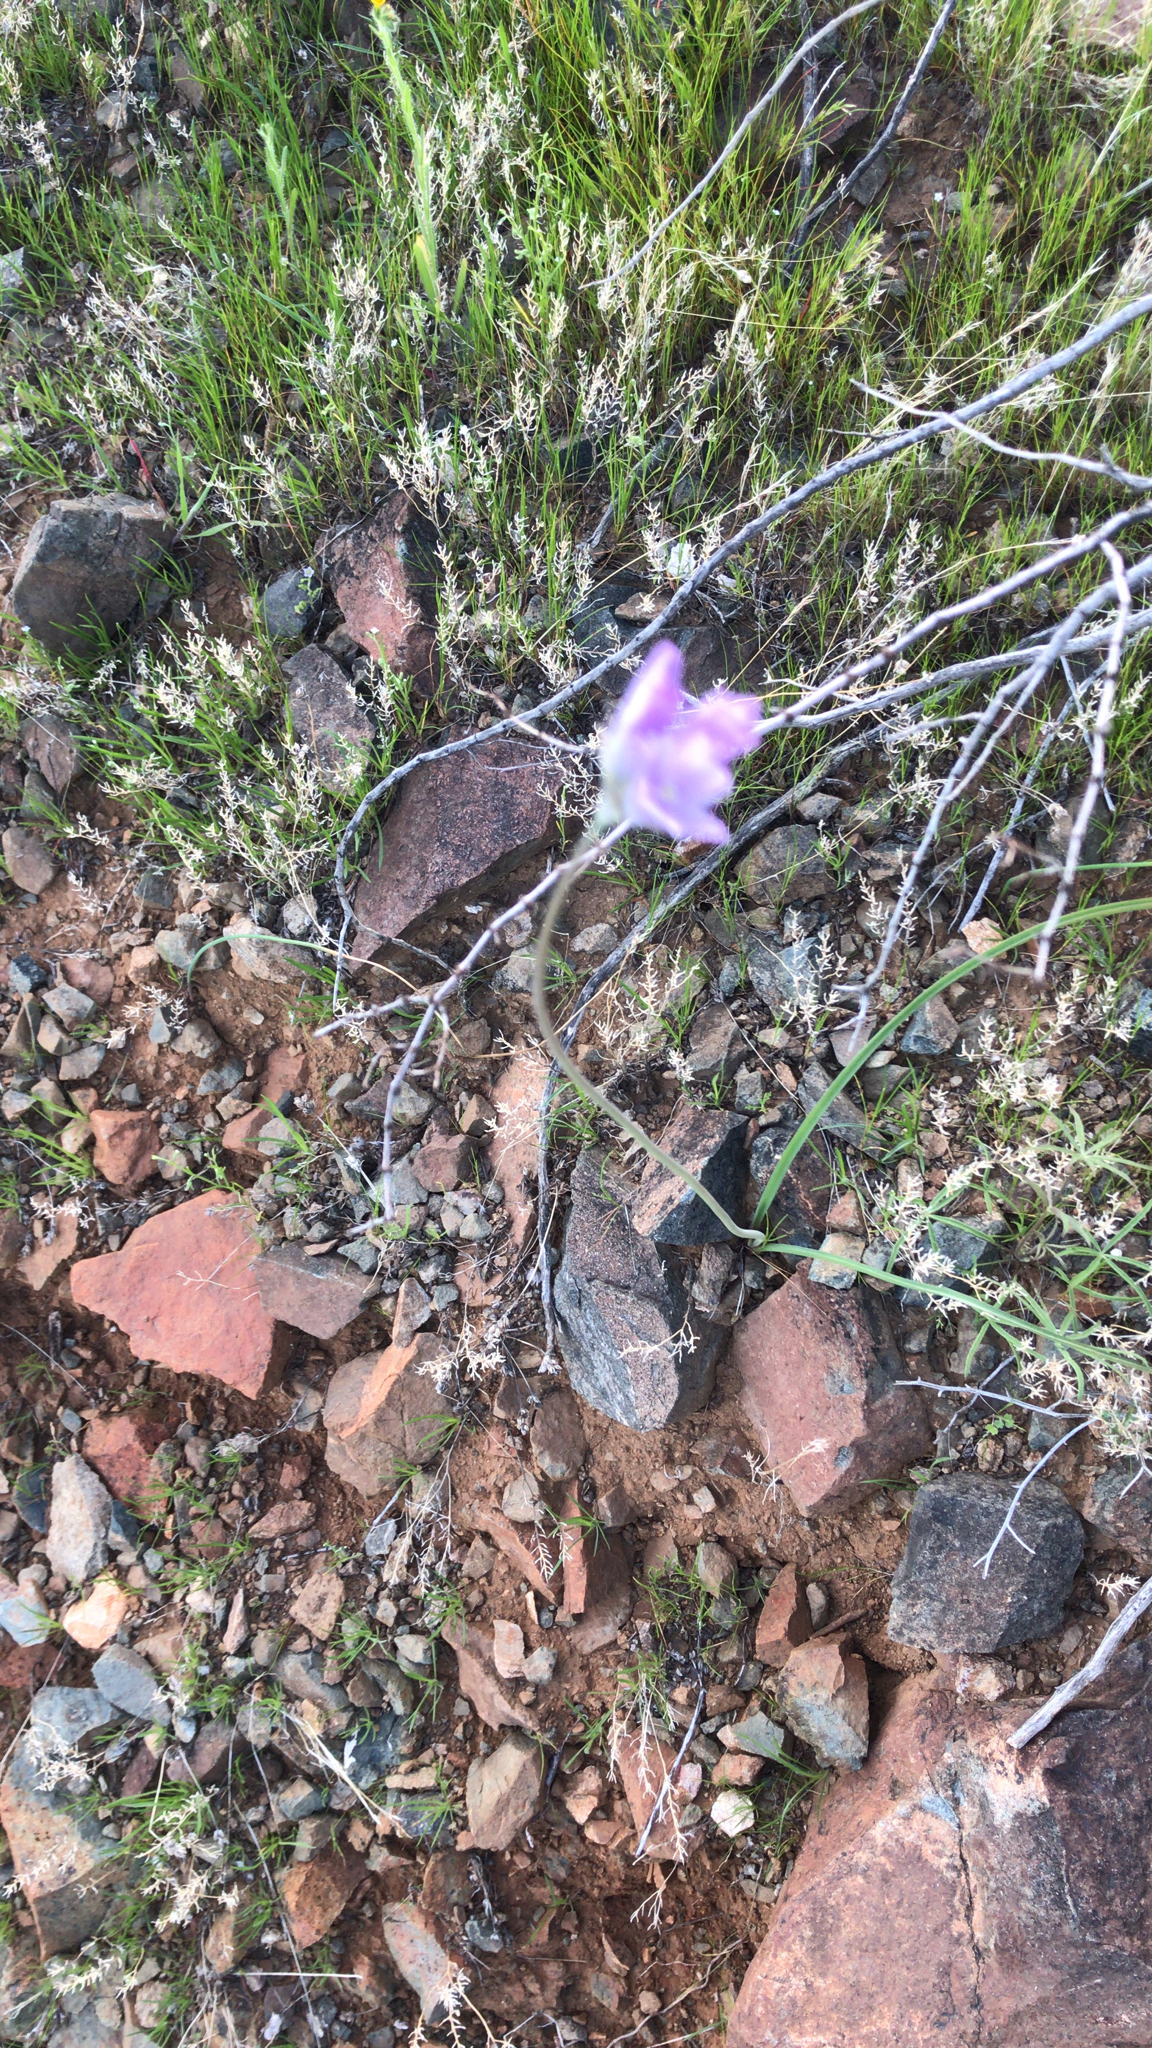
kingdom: Plantae
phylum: Tracheophyta
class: Liliopsida
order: Asparagales
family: Asparagaceae
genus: Dipterostemon
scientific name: Dipterostemon capitatus
